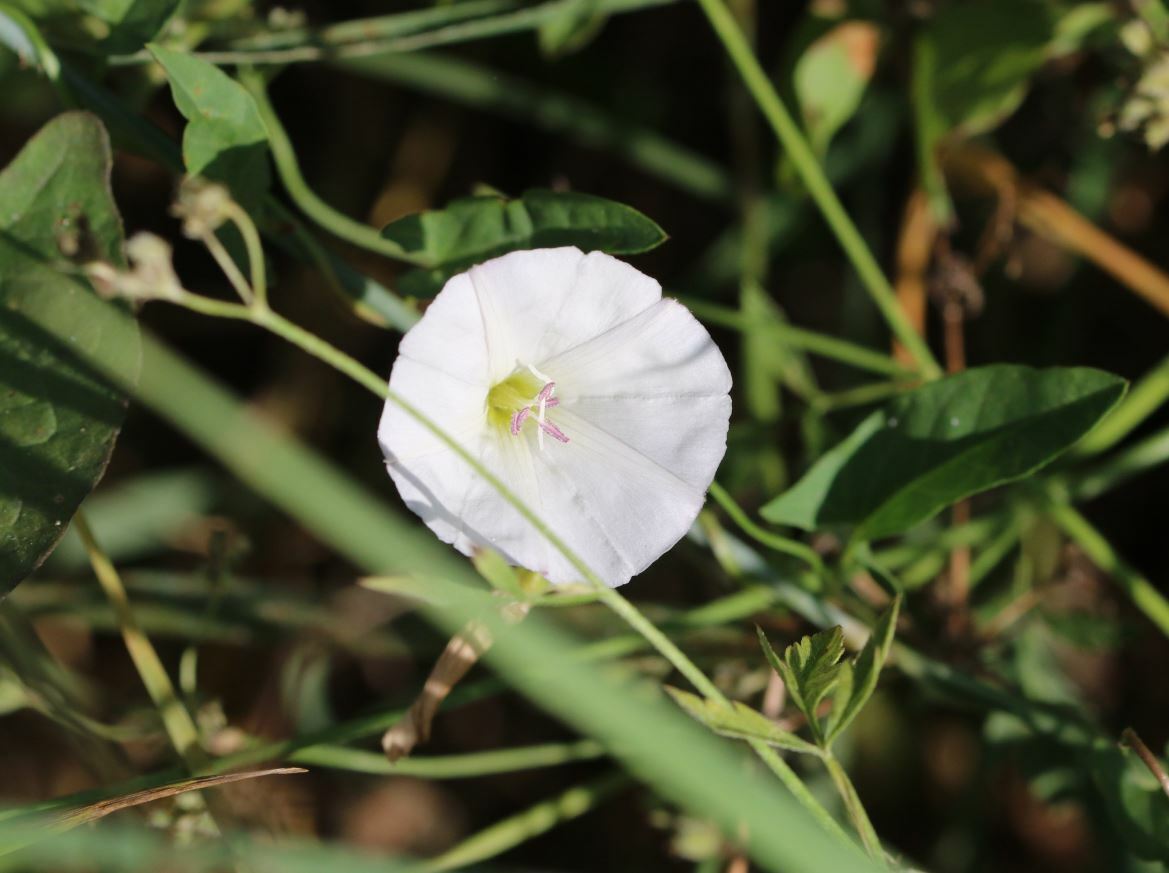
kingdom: Plantae
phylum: Tracheophyta
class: Magnoliopsida
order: Solanales
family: Convolvulaceae
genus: Convolvulus
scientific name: Convolvulus arvensis
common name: Field bindweed
